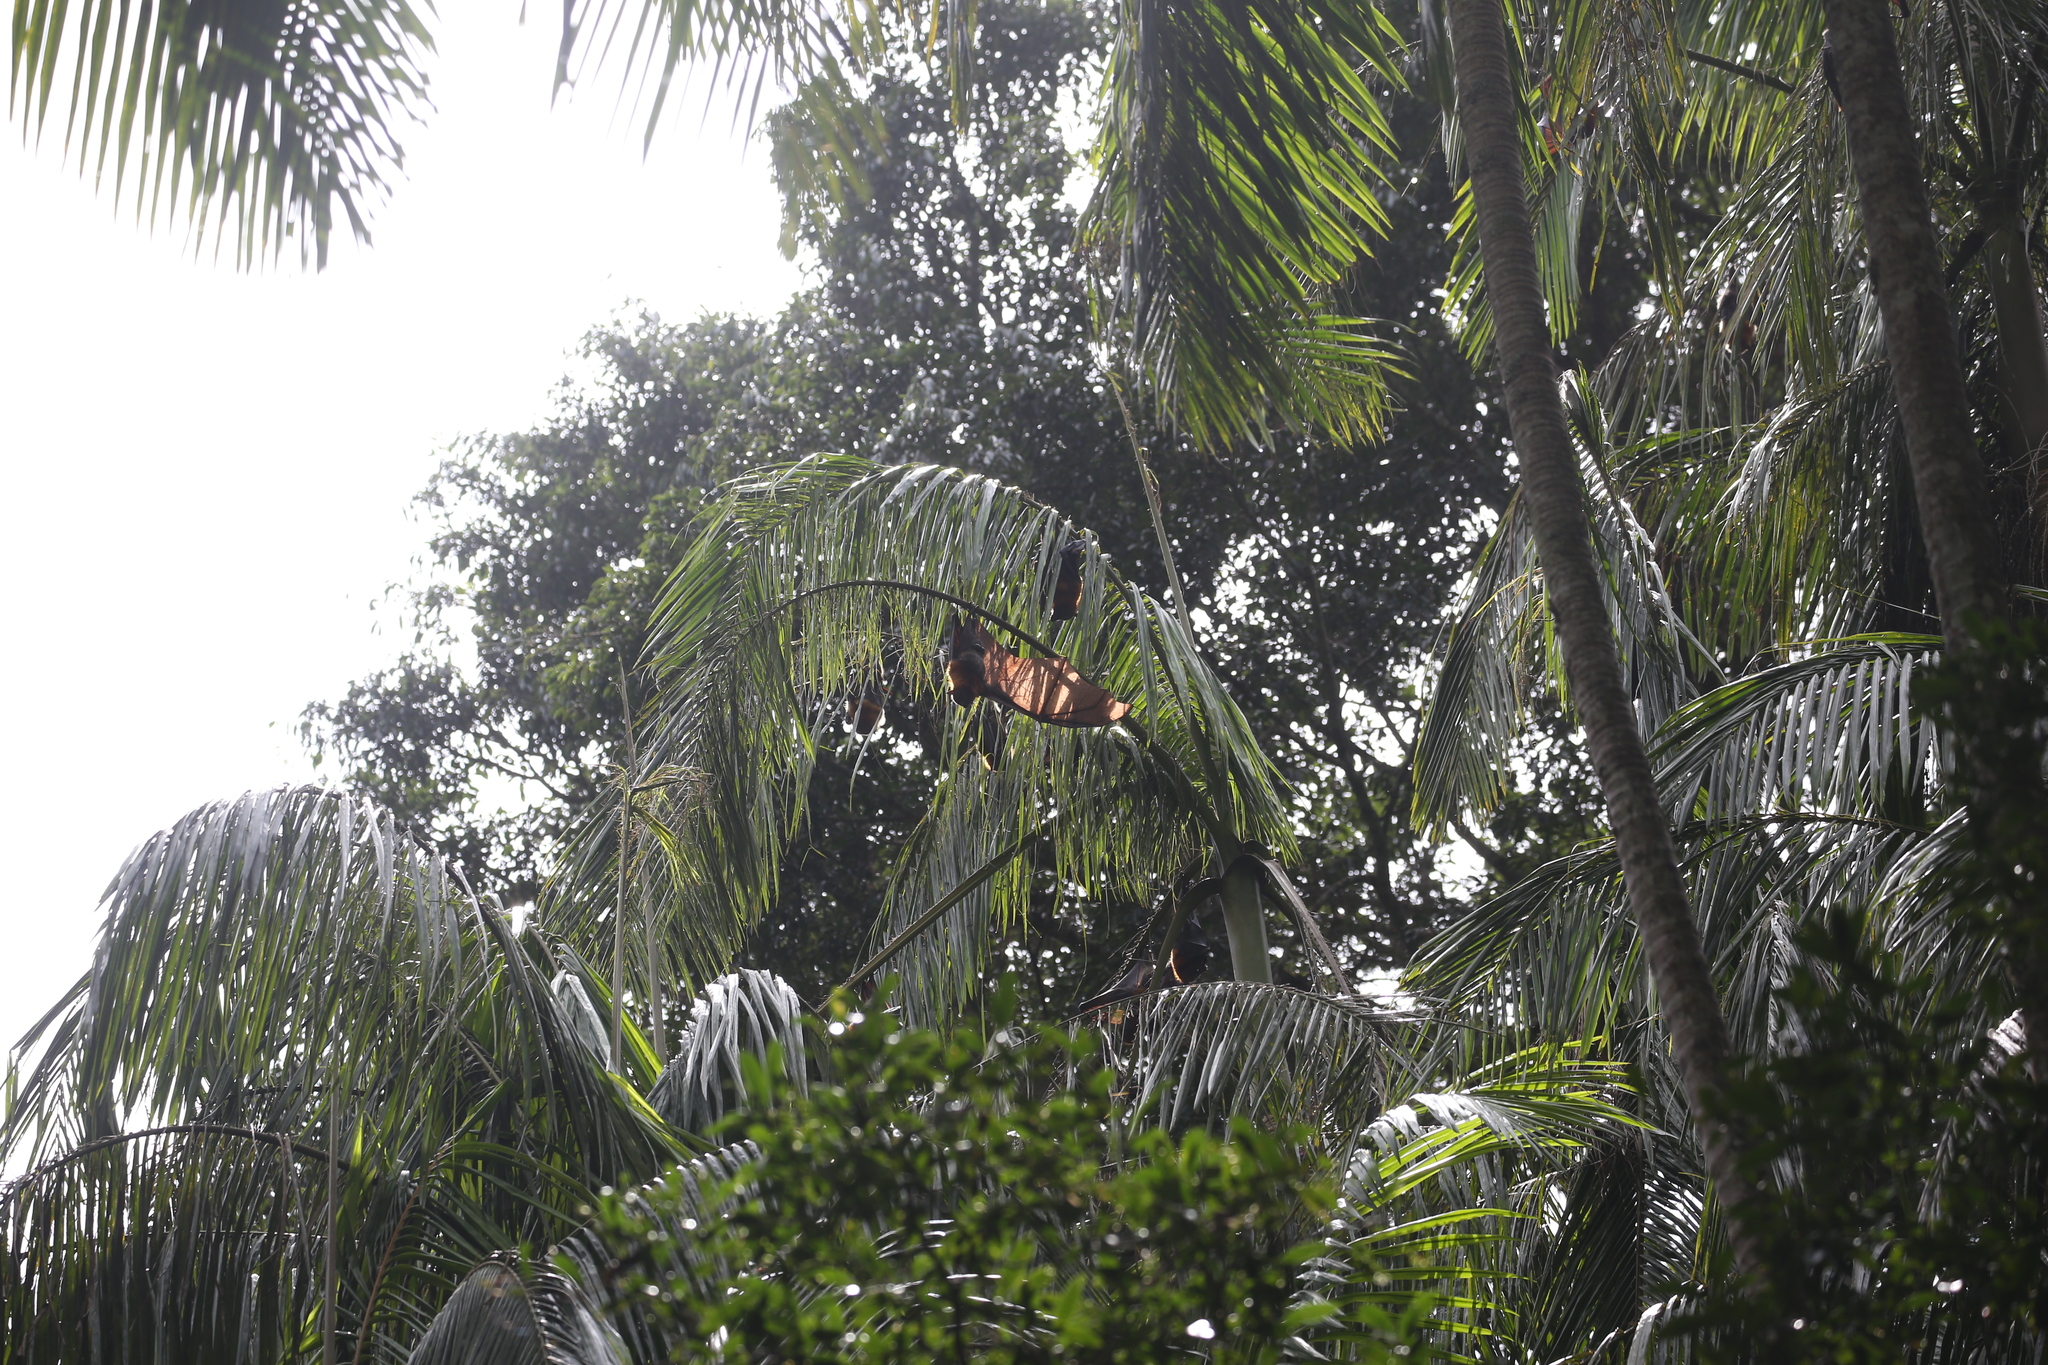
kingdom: Animalia
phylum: Chordata
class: Mammalia
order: Chiroptera
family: Pteropodidae
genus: Pteropus
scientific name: Pteropus poliocephalus
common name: Gray-headed flying fox
